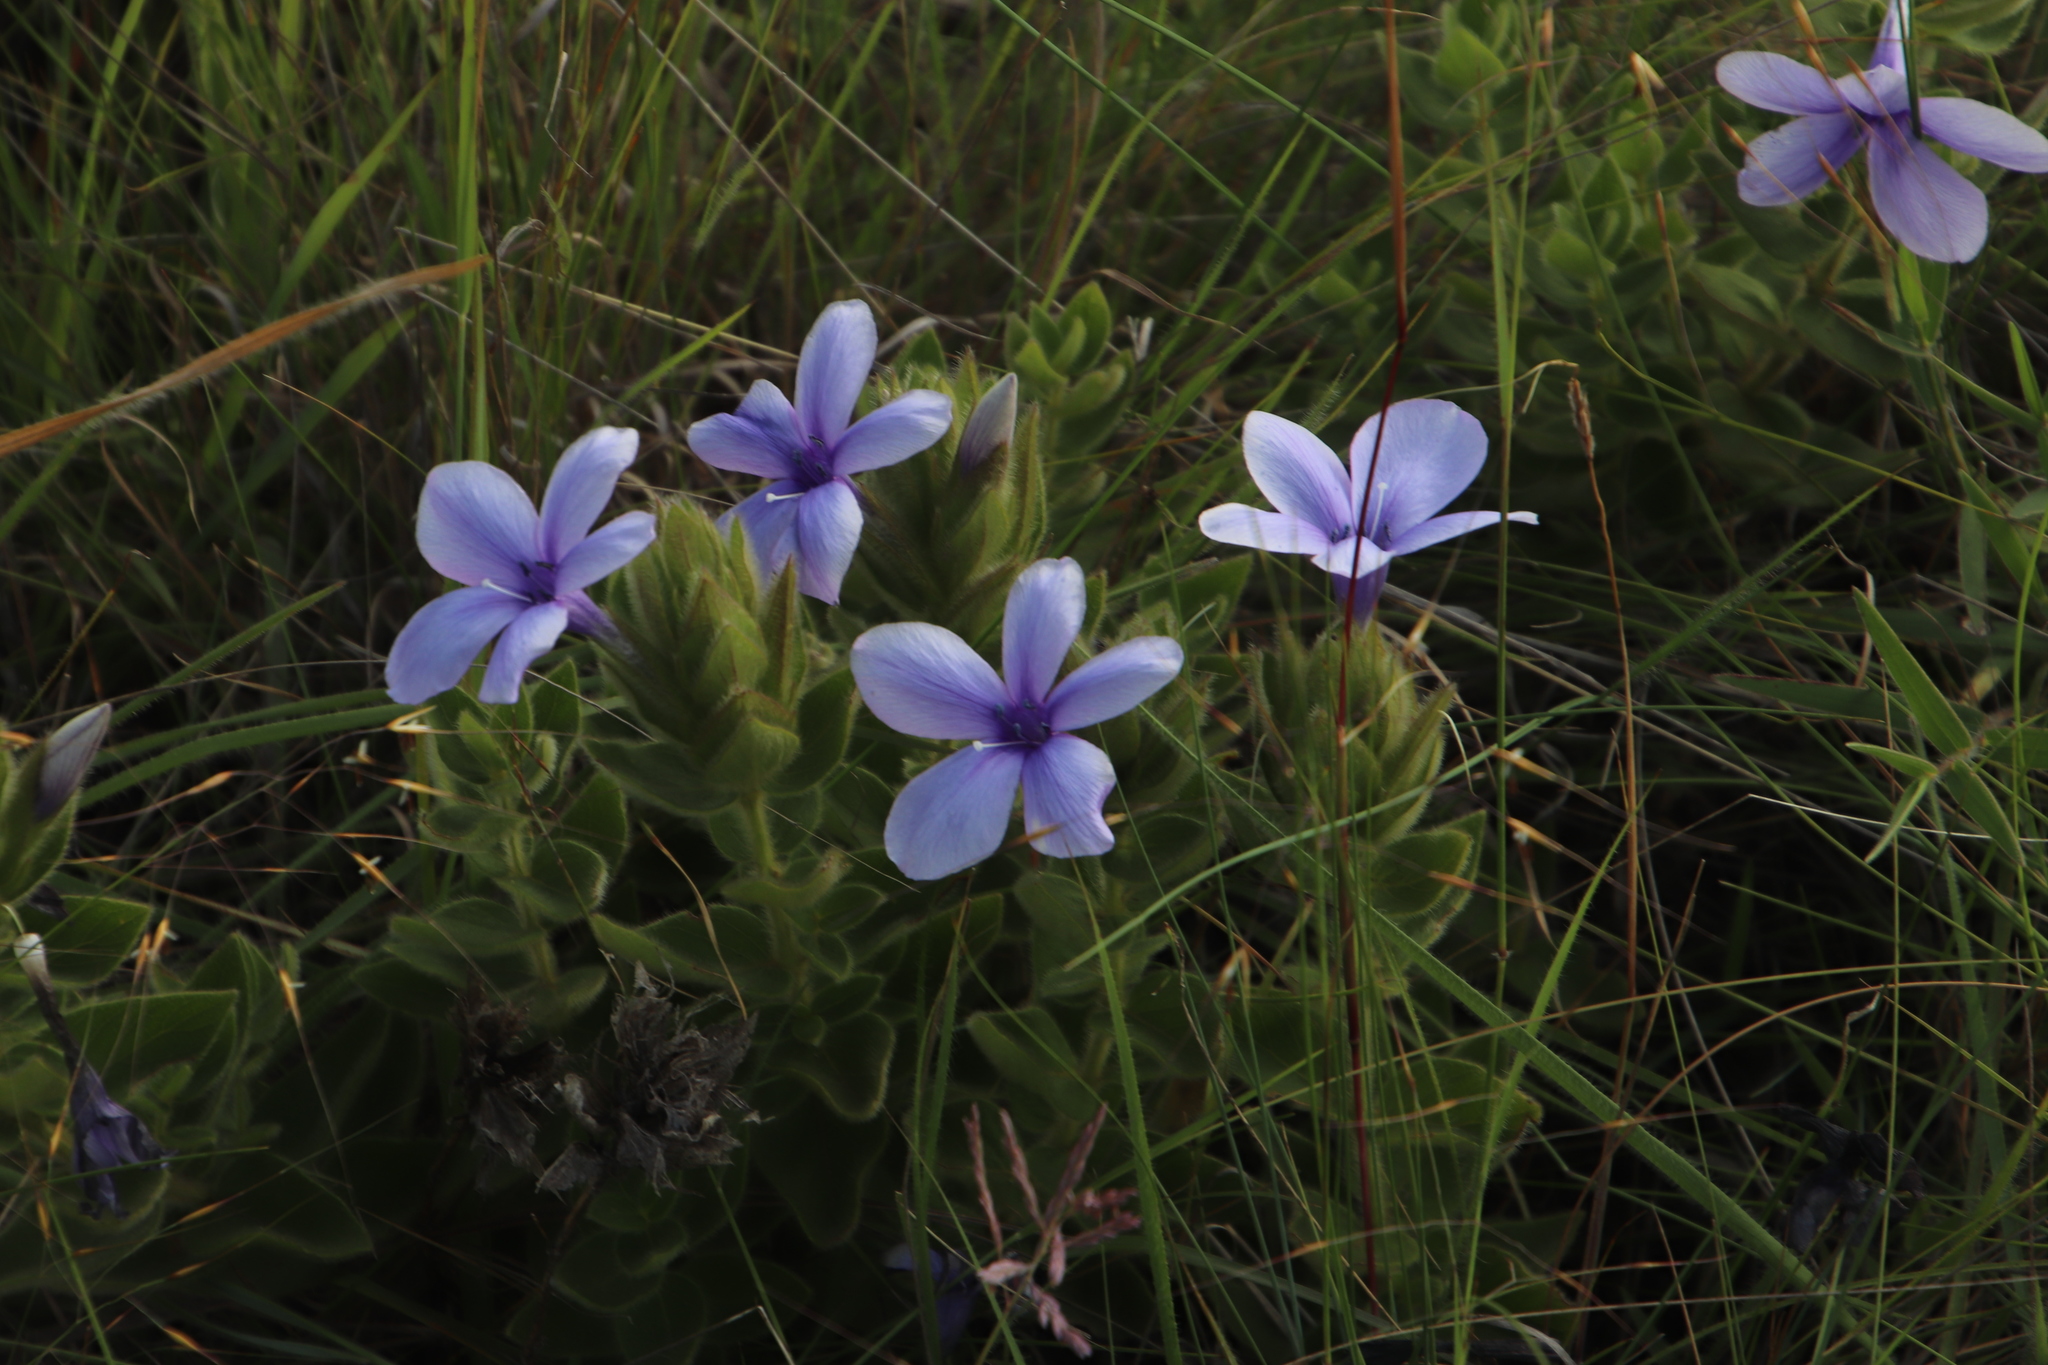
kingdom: Plantae
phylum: Tracheophyta
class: Magnoliopsida
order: Lamiales
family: Acanthaceae
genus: Barleria
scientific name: Barleria ovata
